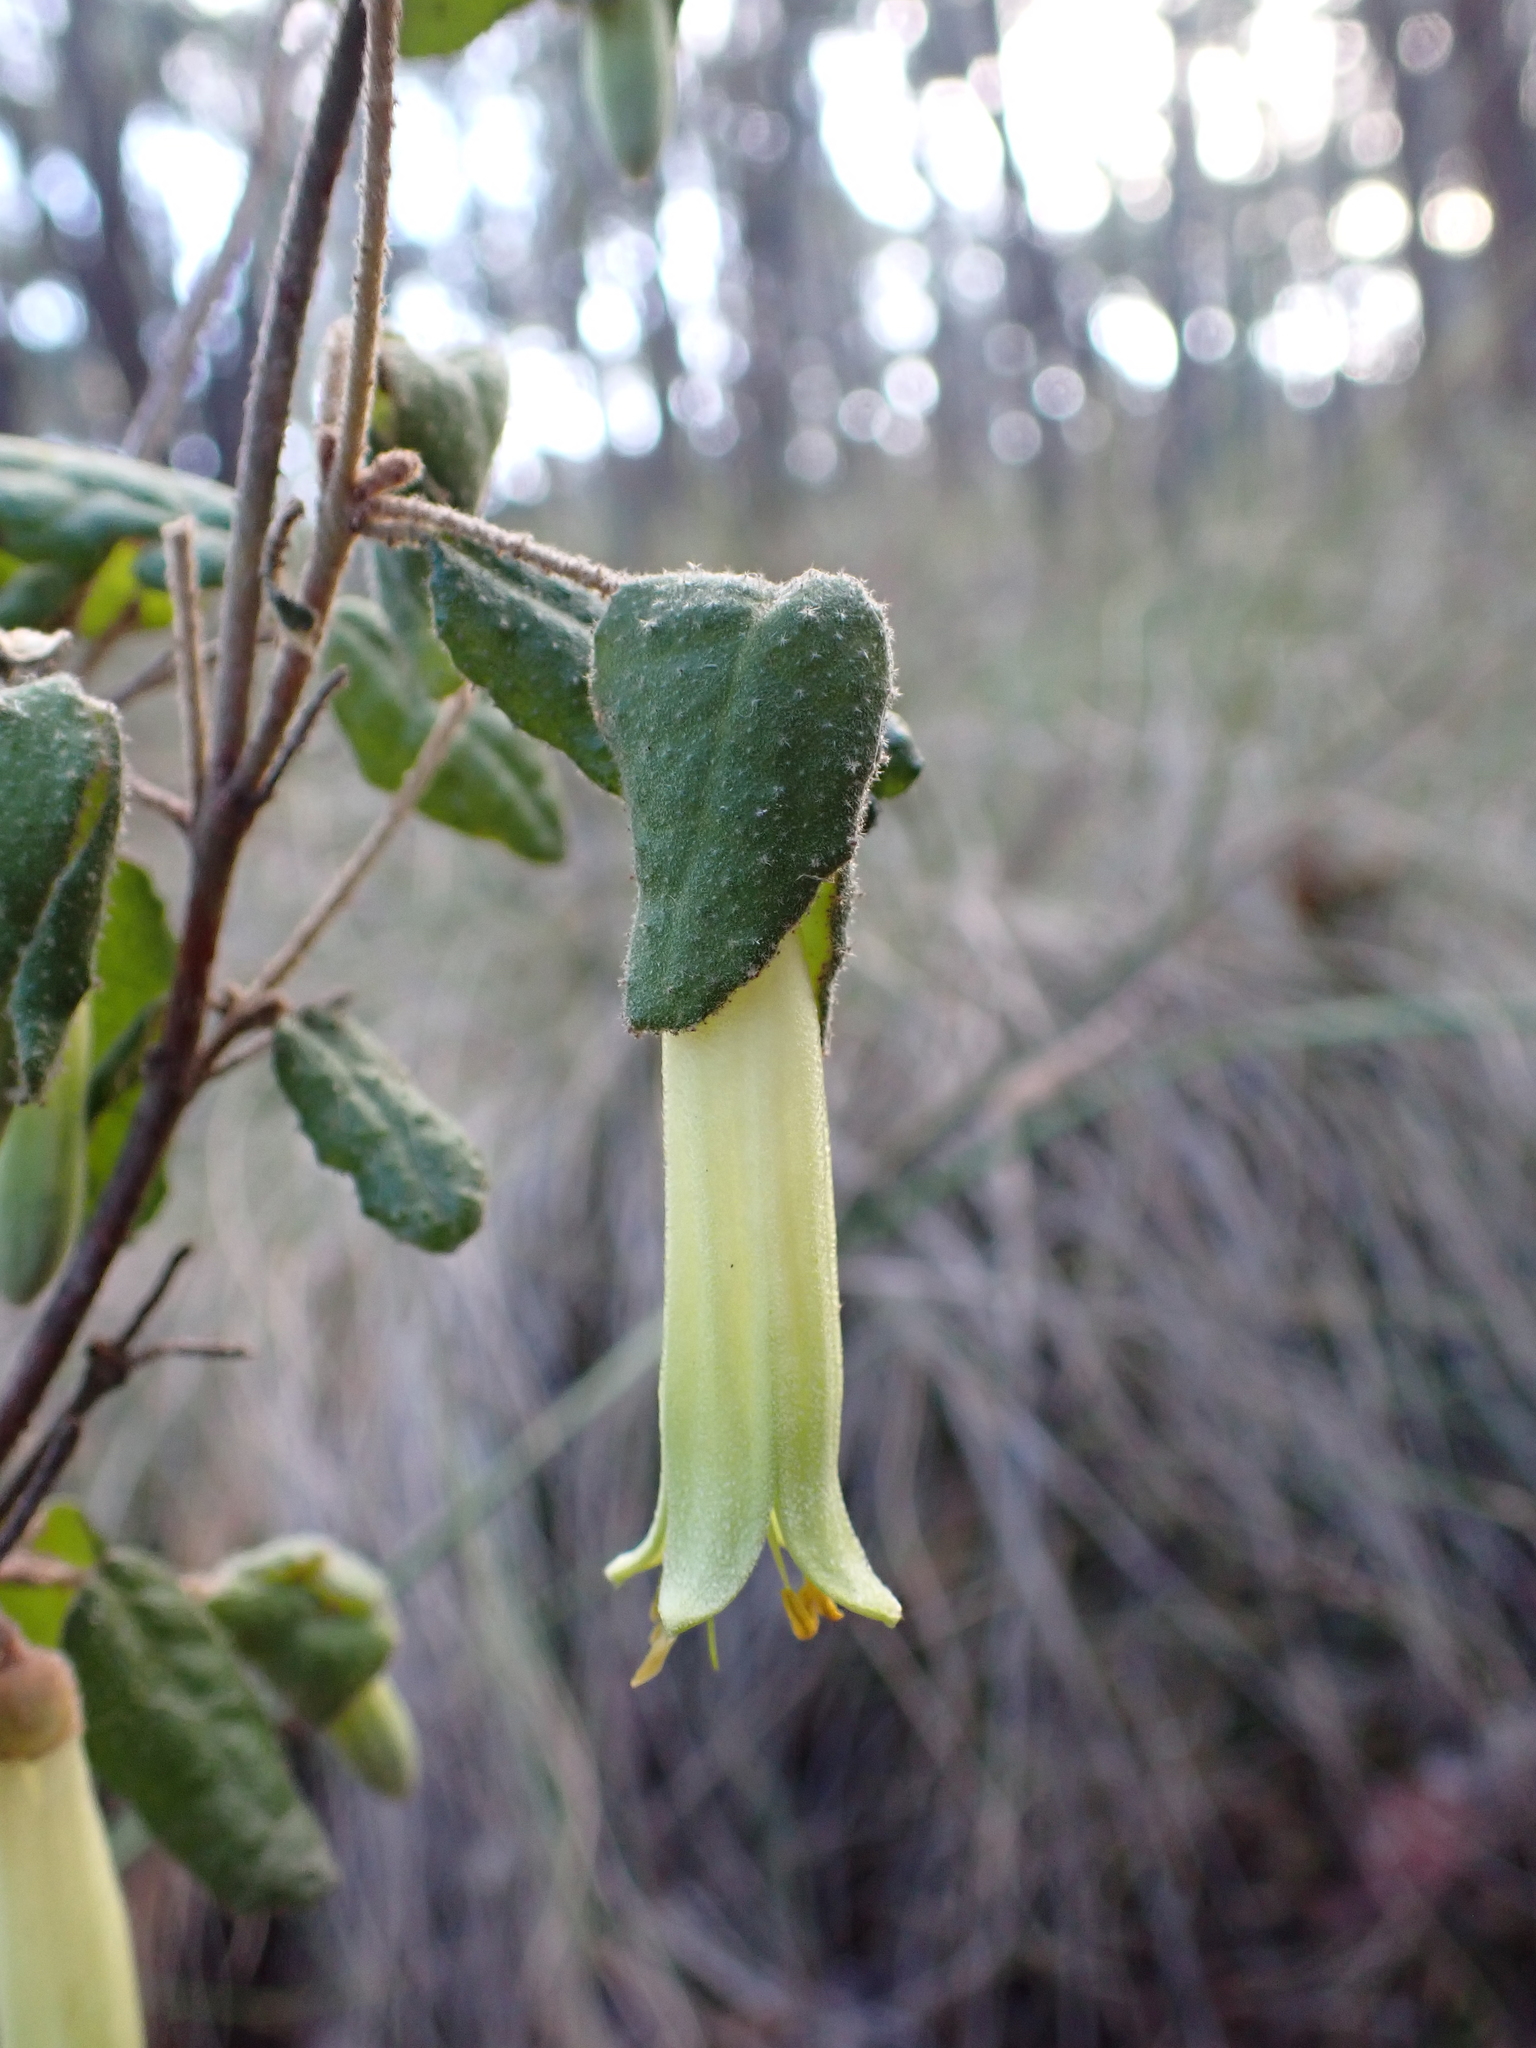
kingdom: Plantae
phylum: Tracheophyta
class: Magnoliopsida
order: Sapindales
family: Rutaceae
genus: Correa
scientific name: Correa reflexa
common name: Common correa
